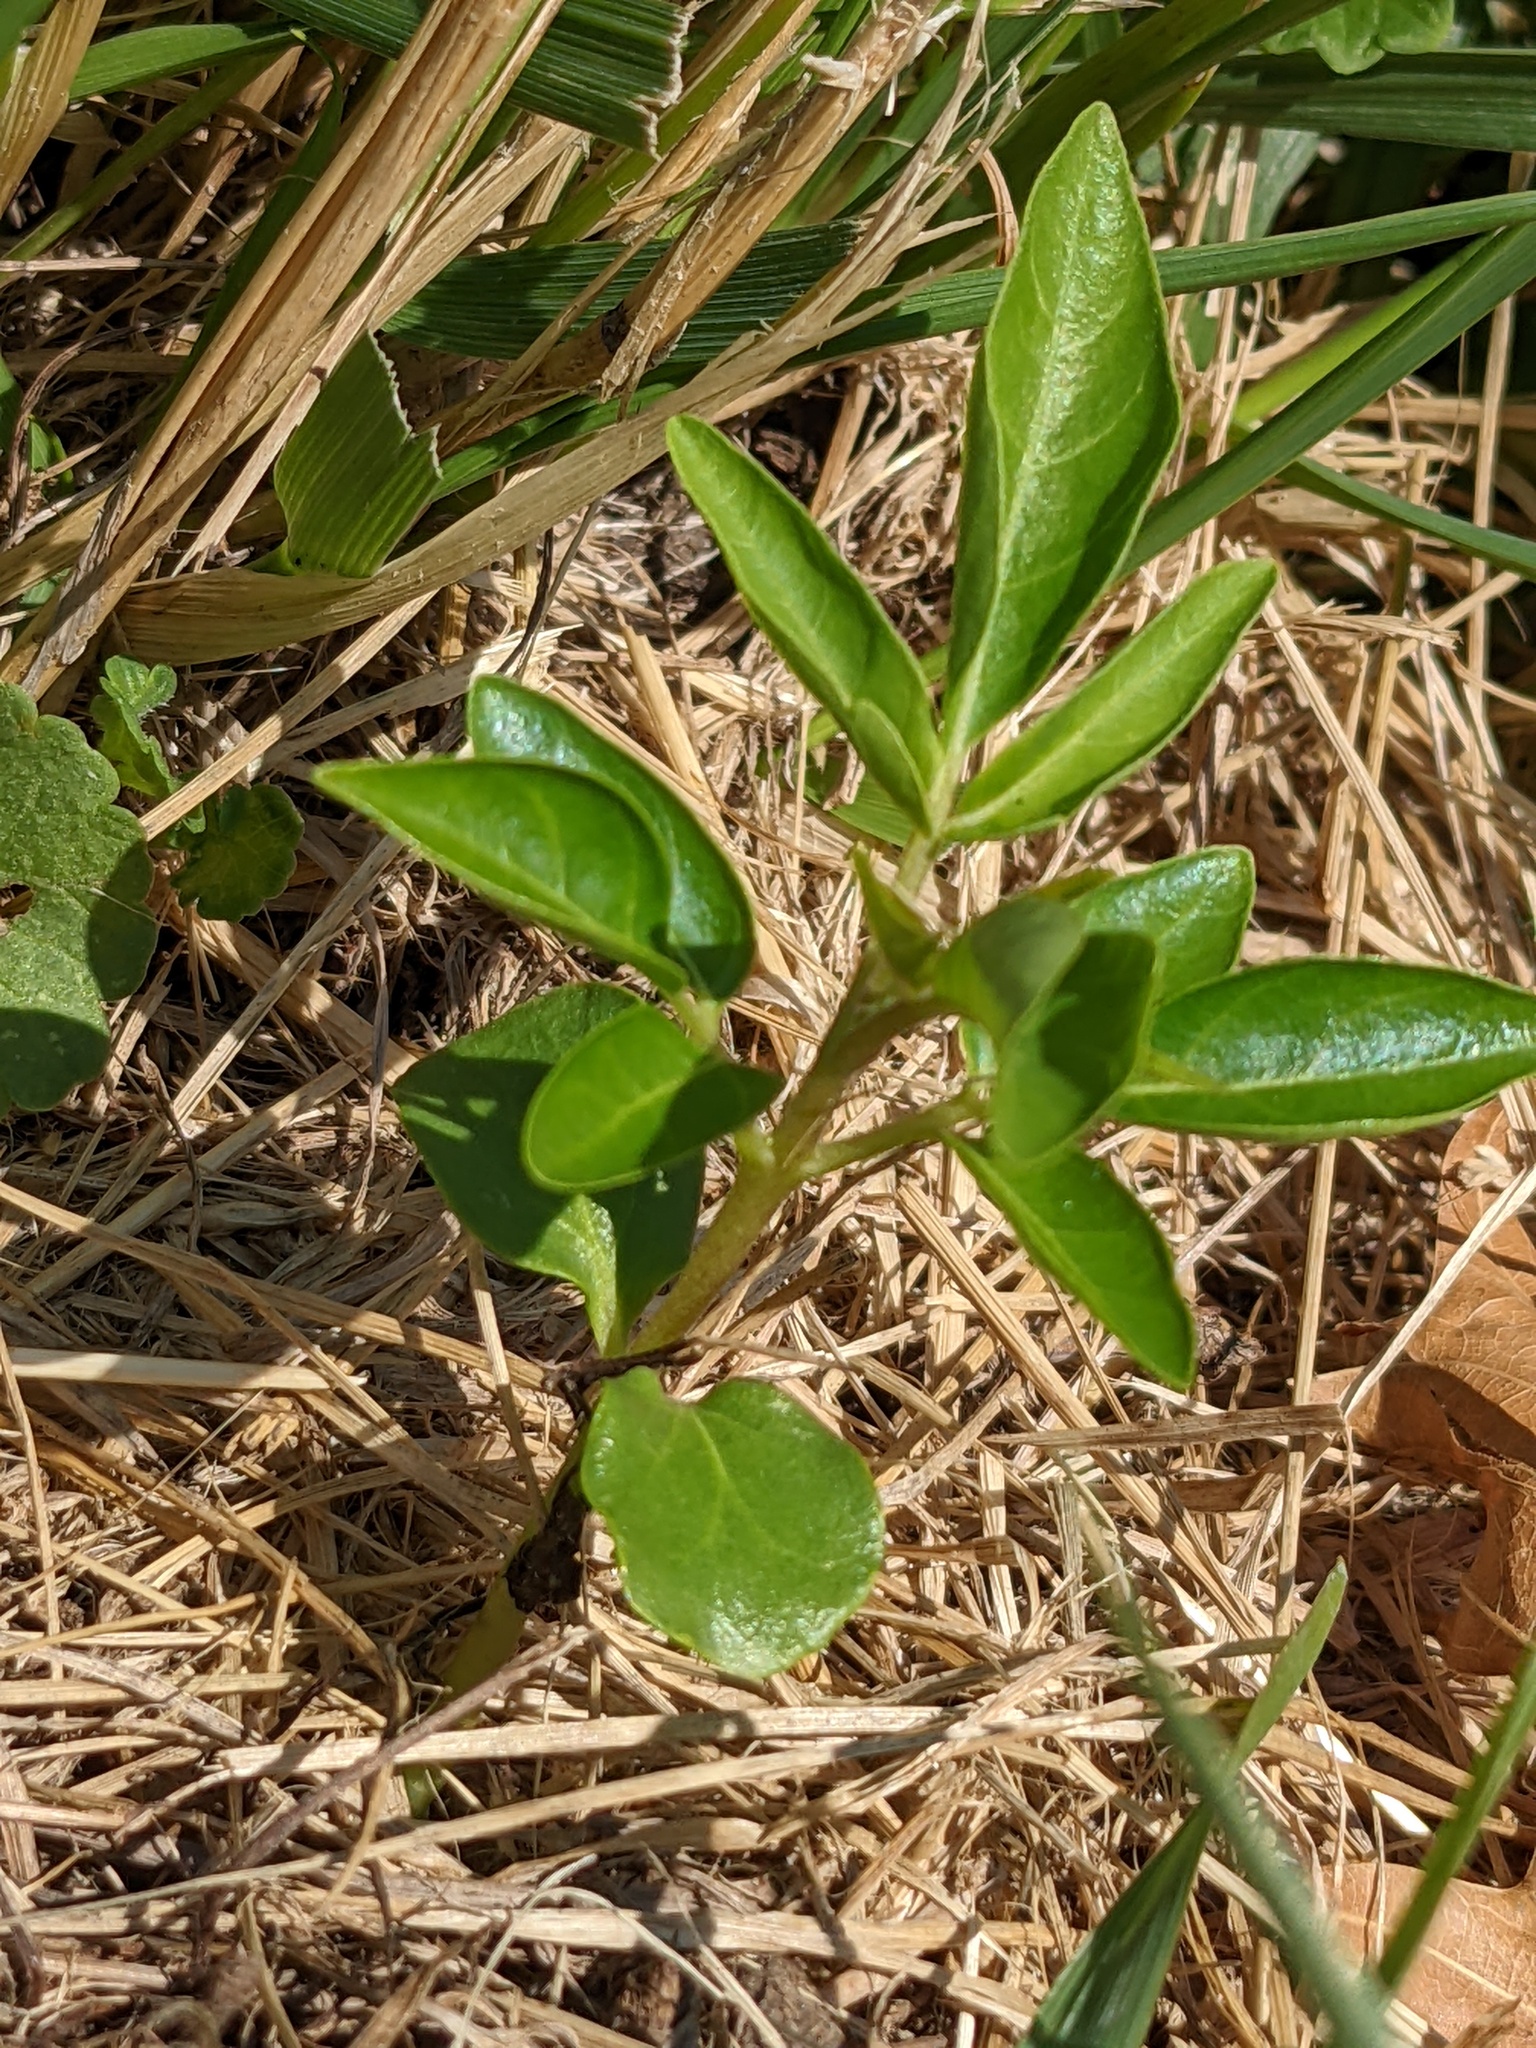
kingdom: Plantae
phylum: Tracheophyta
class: Magnoliopsida
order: Sapindales
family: Simaroubaceae
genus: Ailanthus
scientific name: Ailanthus altissima
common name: Tree-of-heaven
